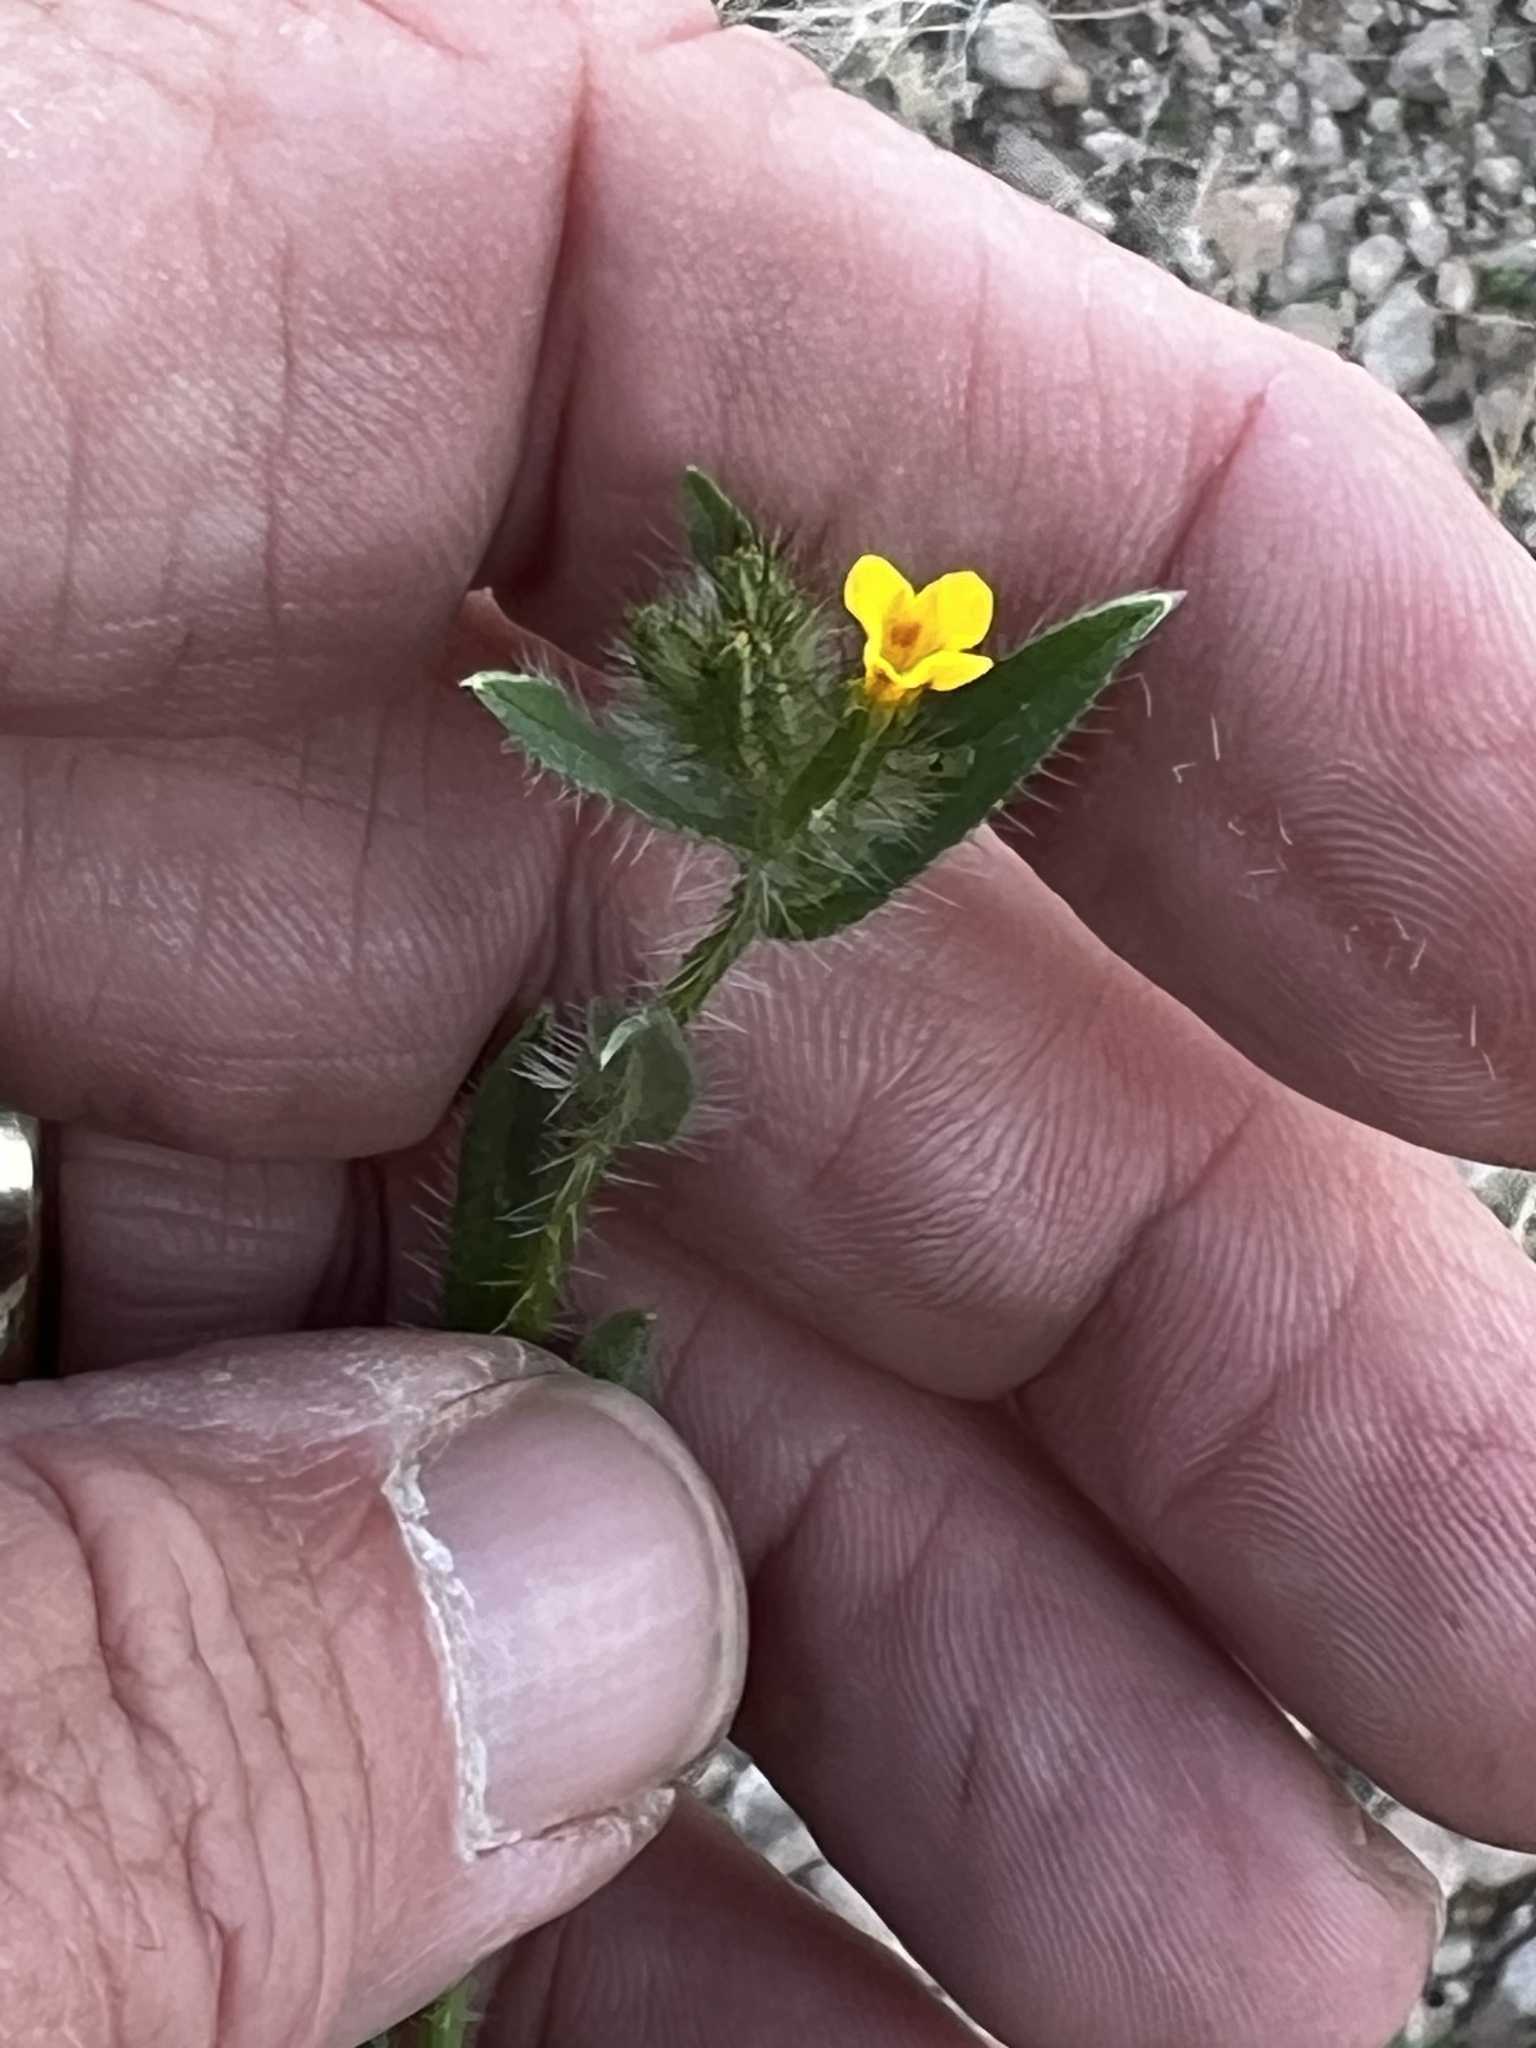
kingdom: Plantae
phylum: Tracheophyta
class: Magnoliopsida
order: Boraginales
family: Boraginaceae
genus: Amsinckia
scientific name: Amsinckia tessellata
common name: Tessellate fiddleneck
